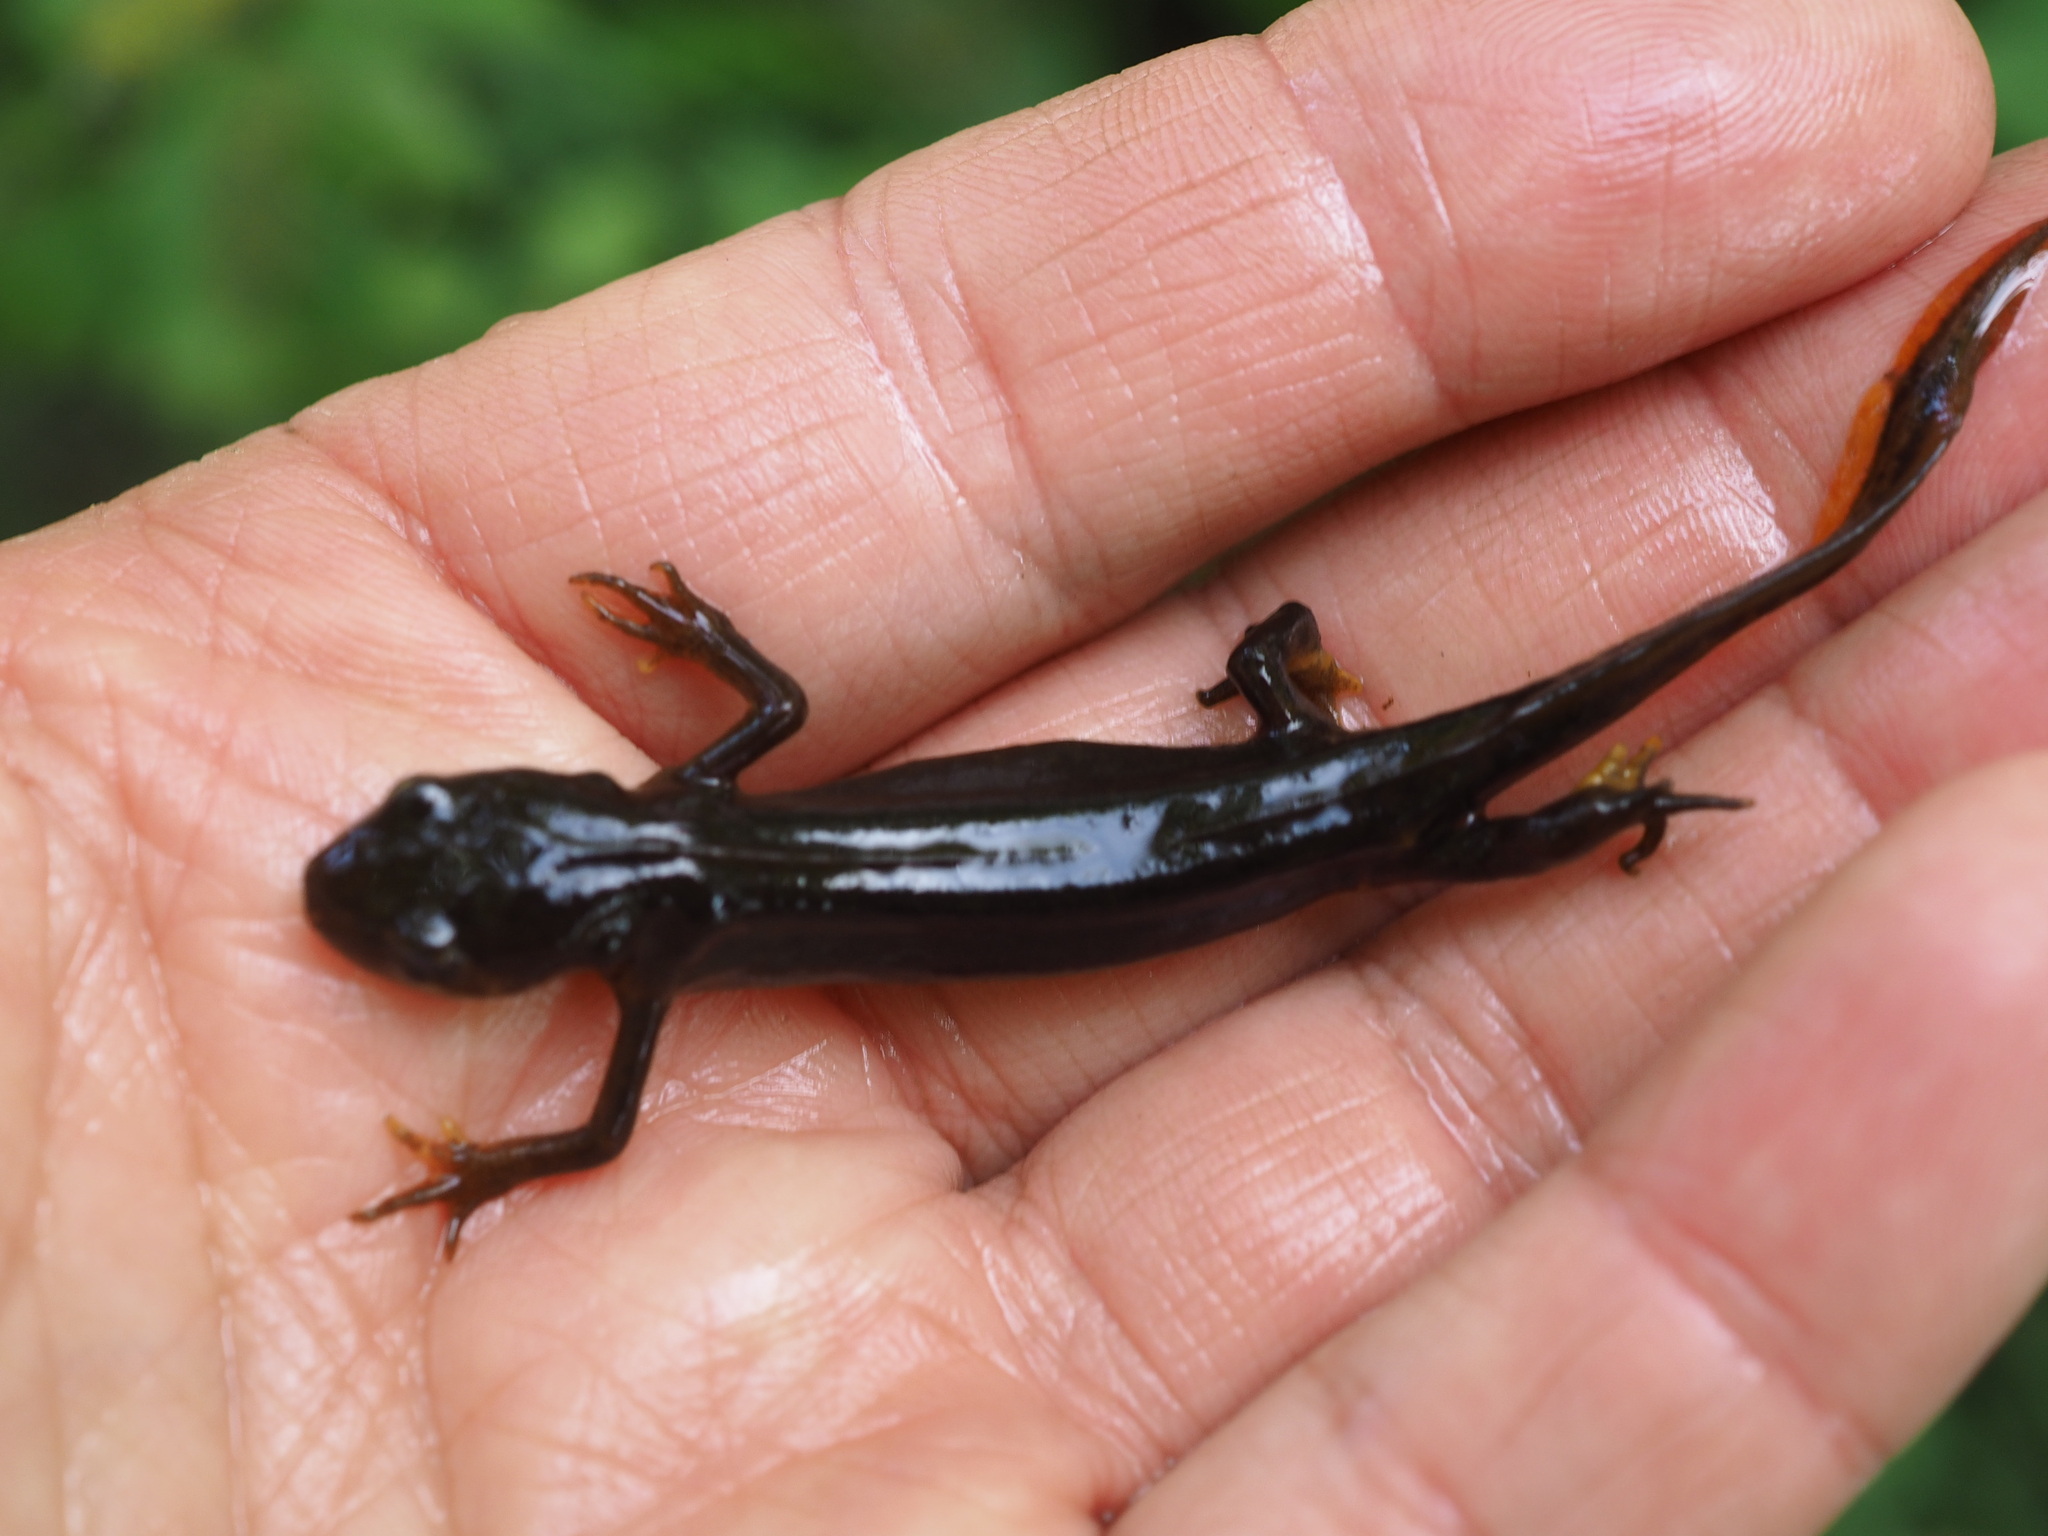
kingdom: Animalia
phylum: Chordata
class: Amphibia
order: Caudata
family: Salamandridae
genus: Lissotriton
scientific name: Lissotriton helveticus
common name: Palmate newt
